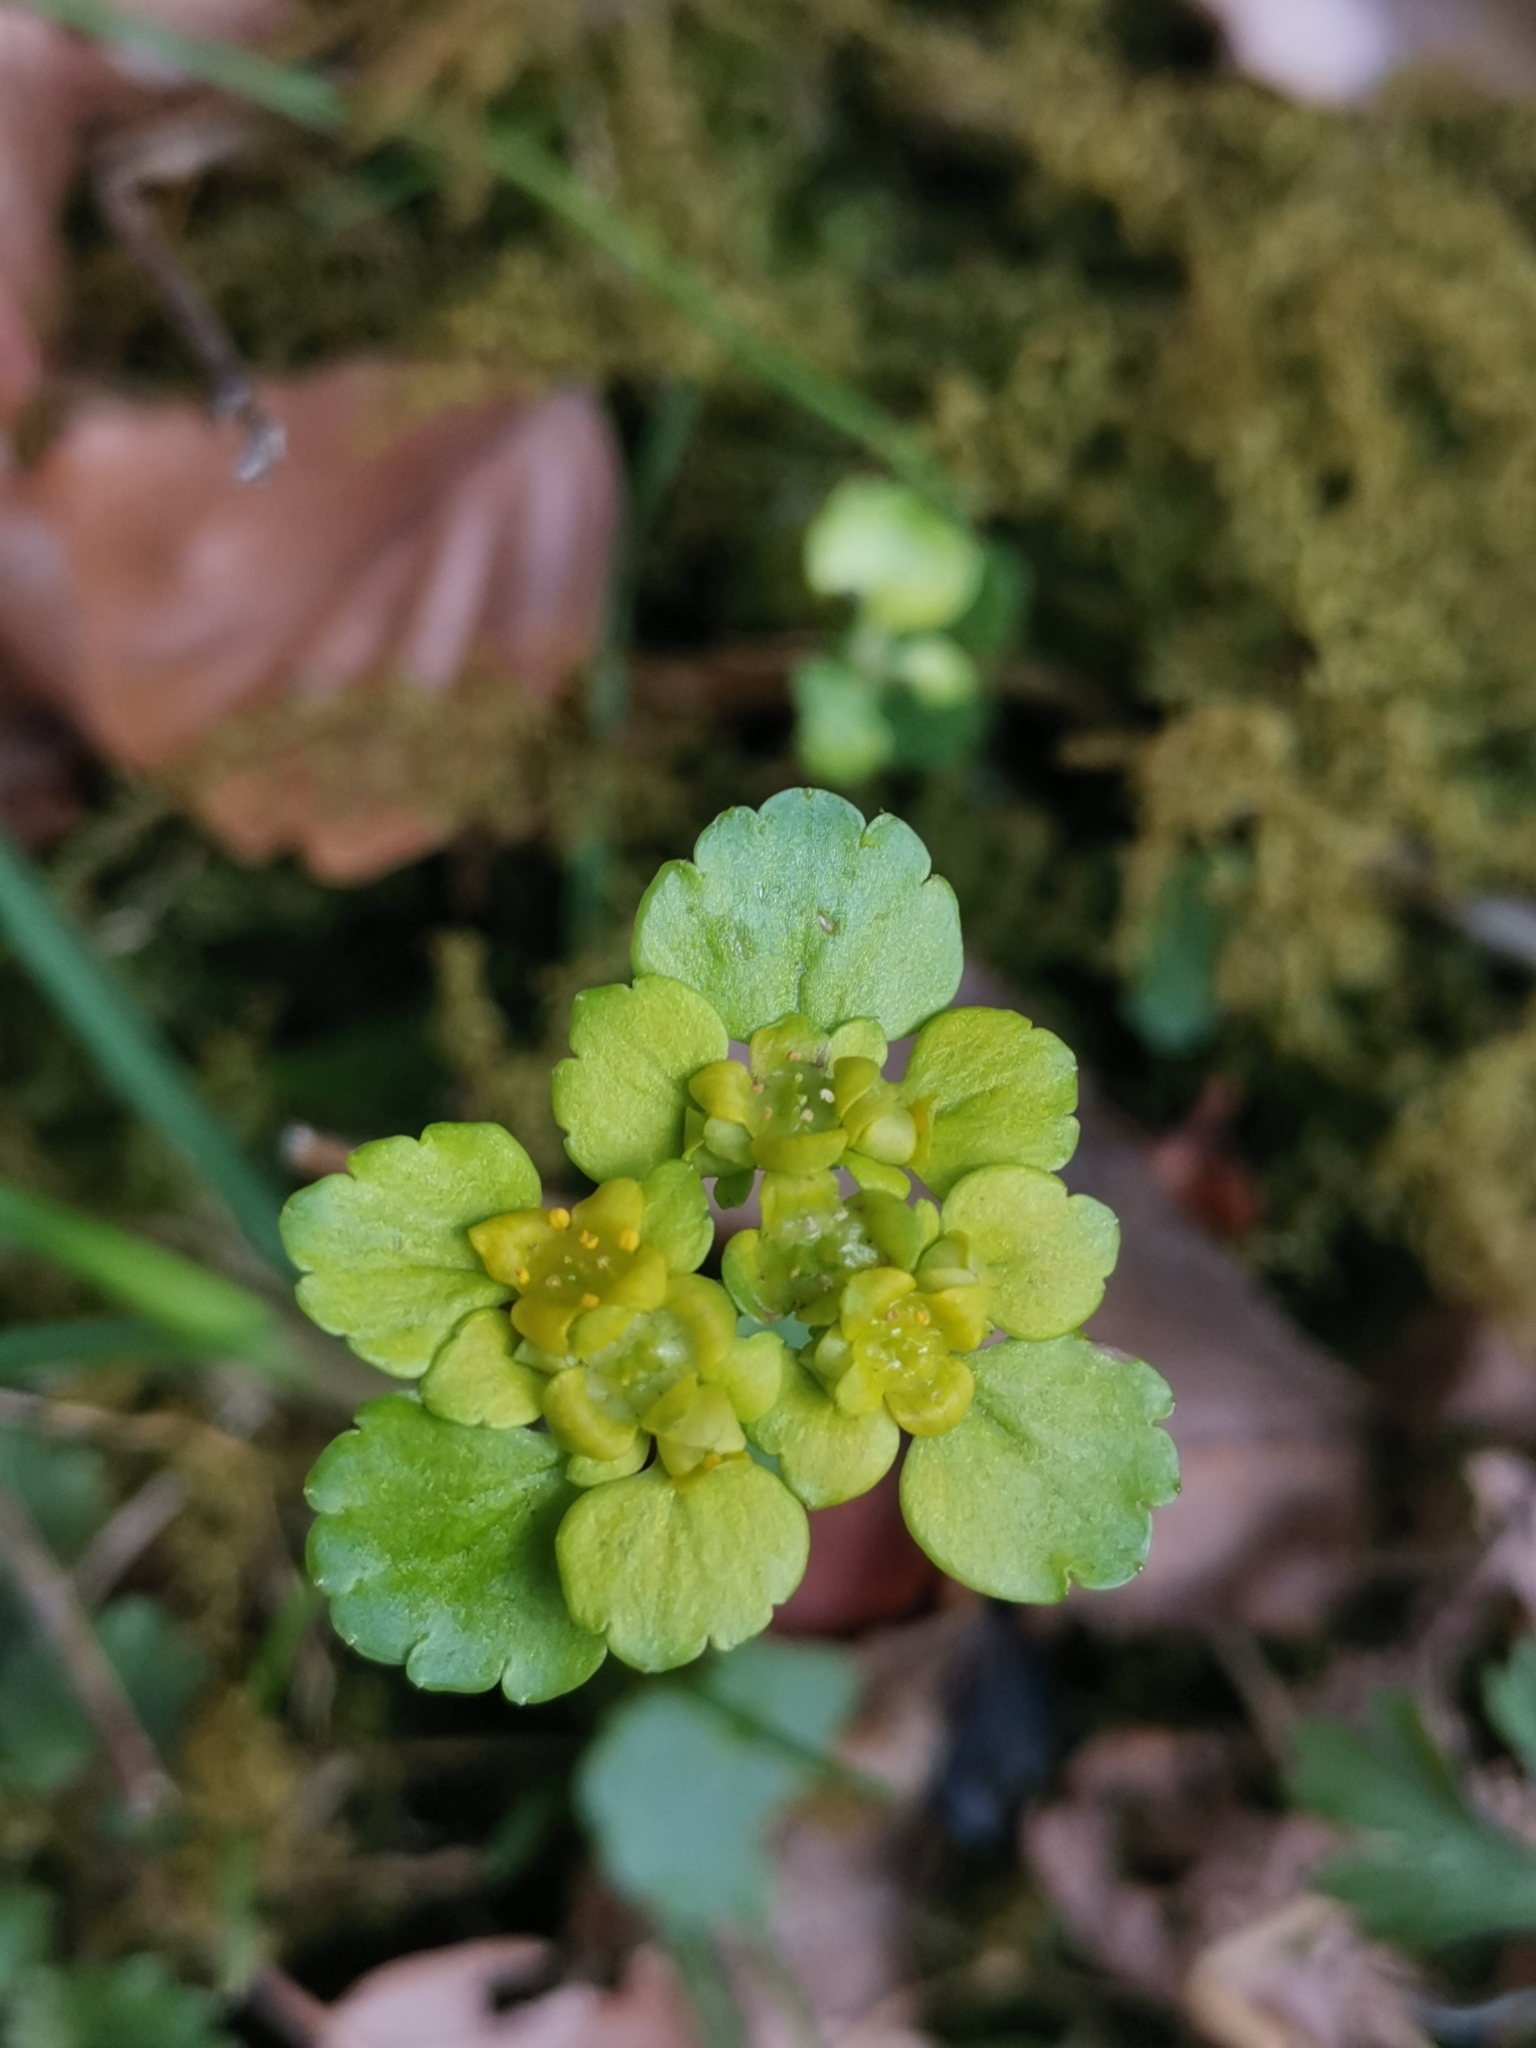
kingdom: Plantae
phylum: Tracheophyta
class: Magnoliopsida
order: Saxifragales
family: Saxifragaceae
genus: Chrysosplenium
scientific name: Chrysosplenium alternifolium
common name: Alternate-leaved golden-saxifrage
